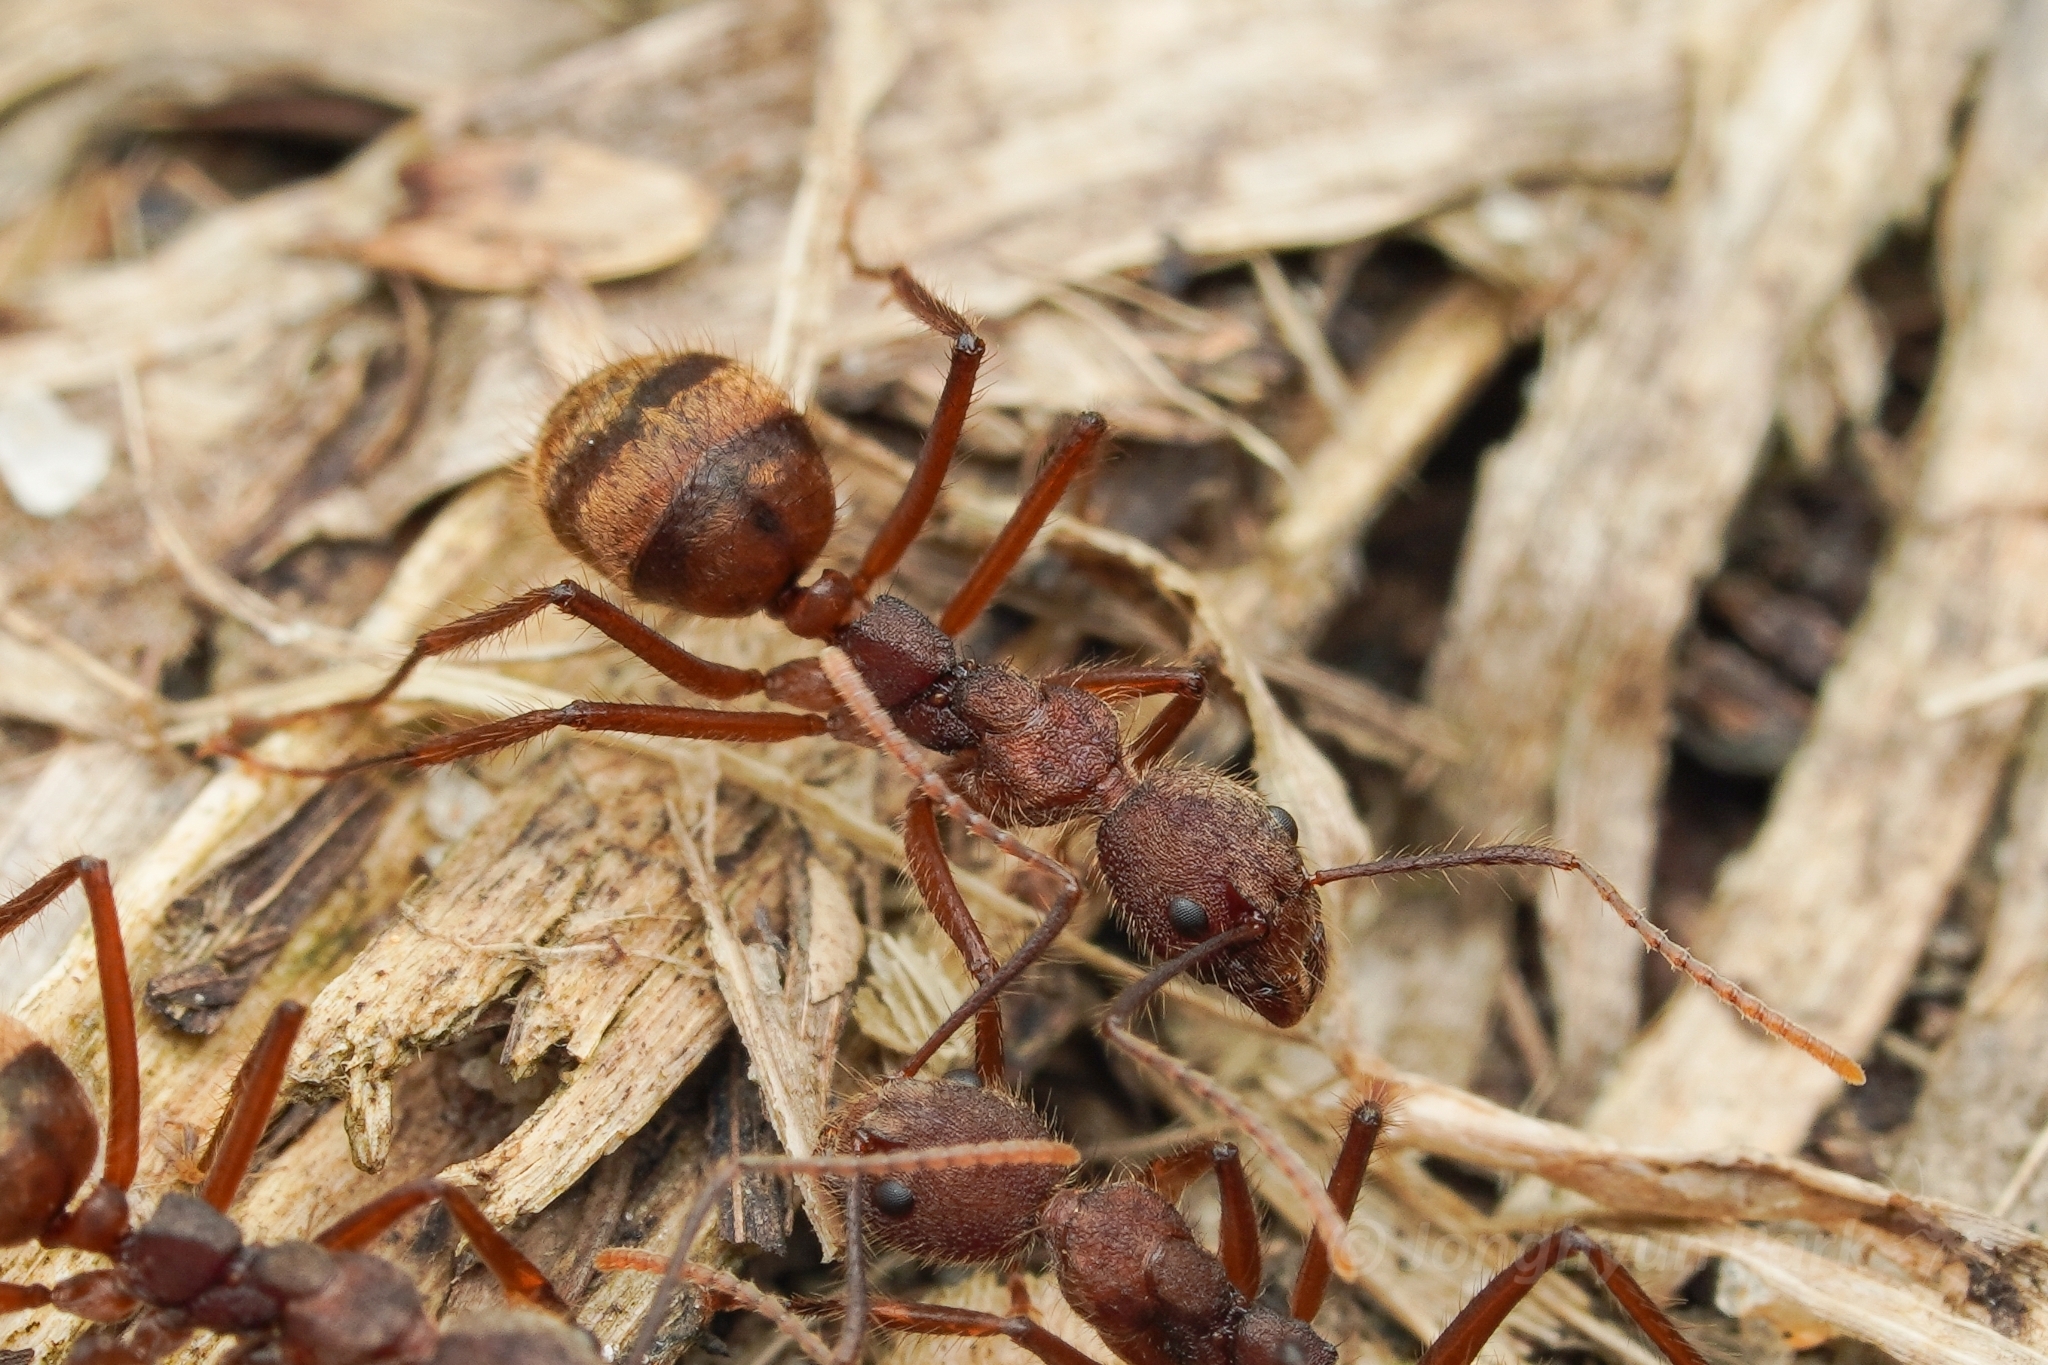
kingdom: Animalia
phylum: Arthropoda
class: Insecta
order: Hymenoptera
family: Formicidae
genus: Dolichoderus
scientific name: Dolichoderus bidens
